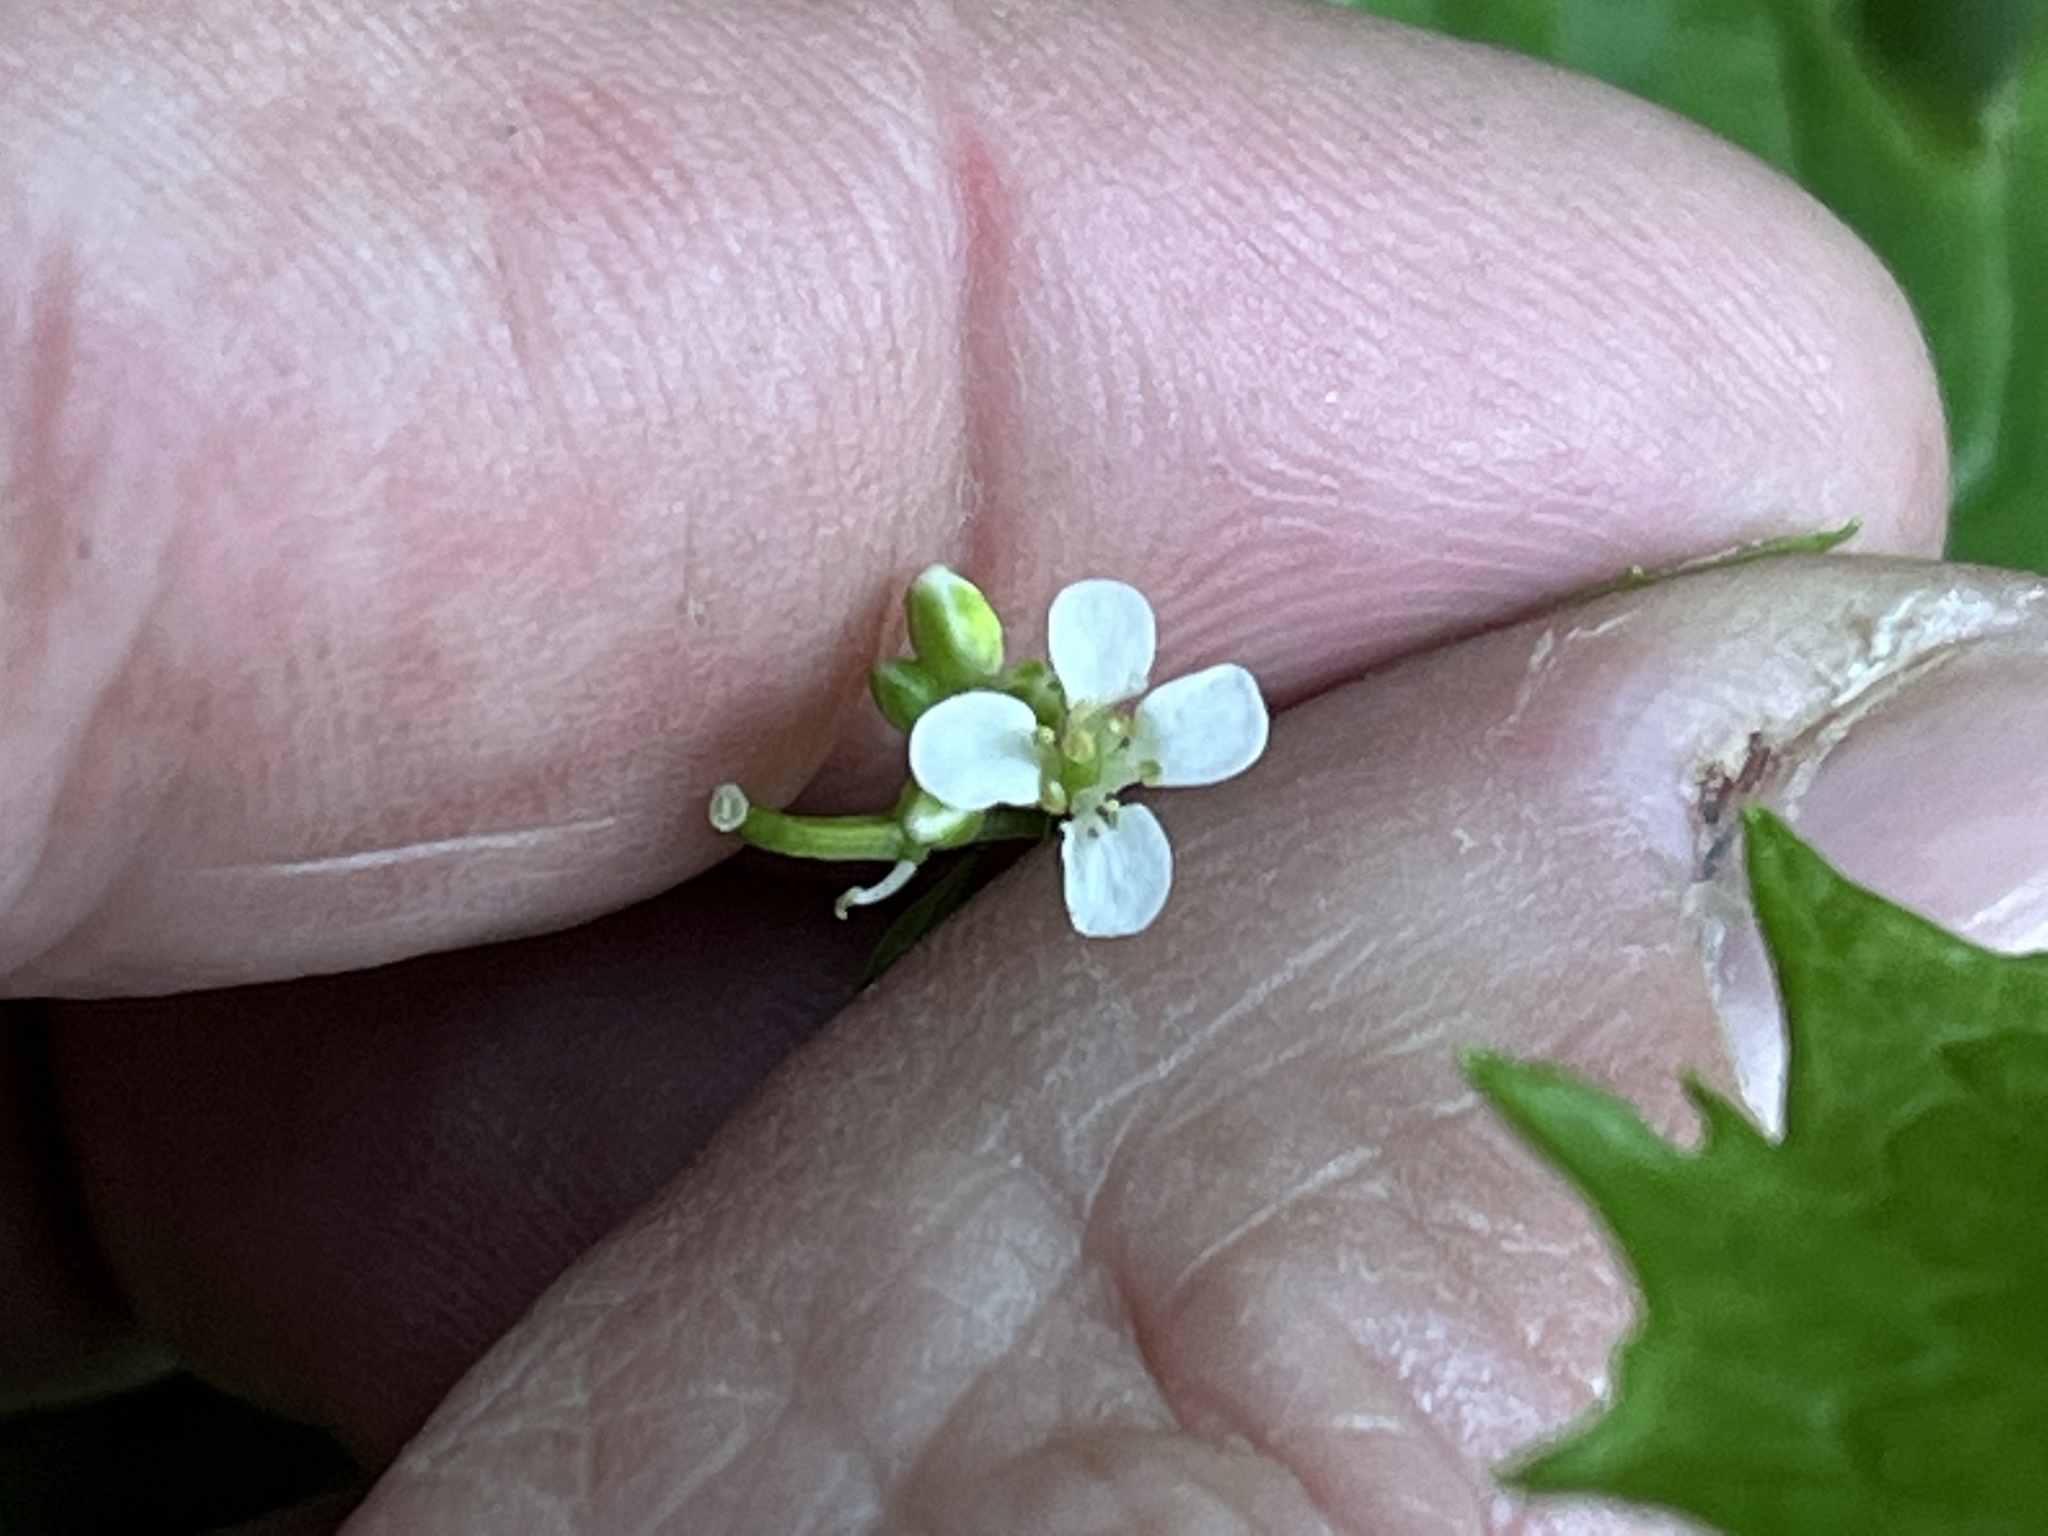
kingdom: Plantae
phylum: Tracheophyta
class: Magnoliopsida
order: Brassicales
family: Brassicaceae
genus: Alliaria
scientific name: Alliaria petiolata
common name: Garlic mustard
